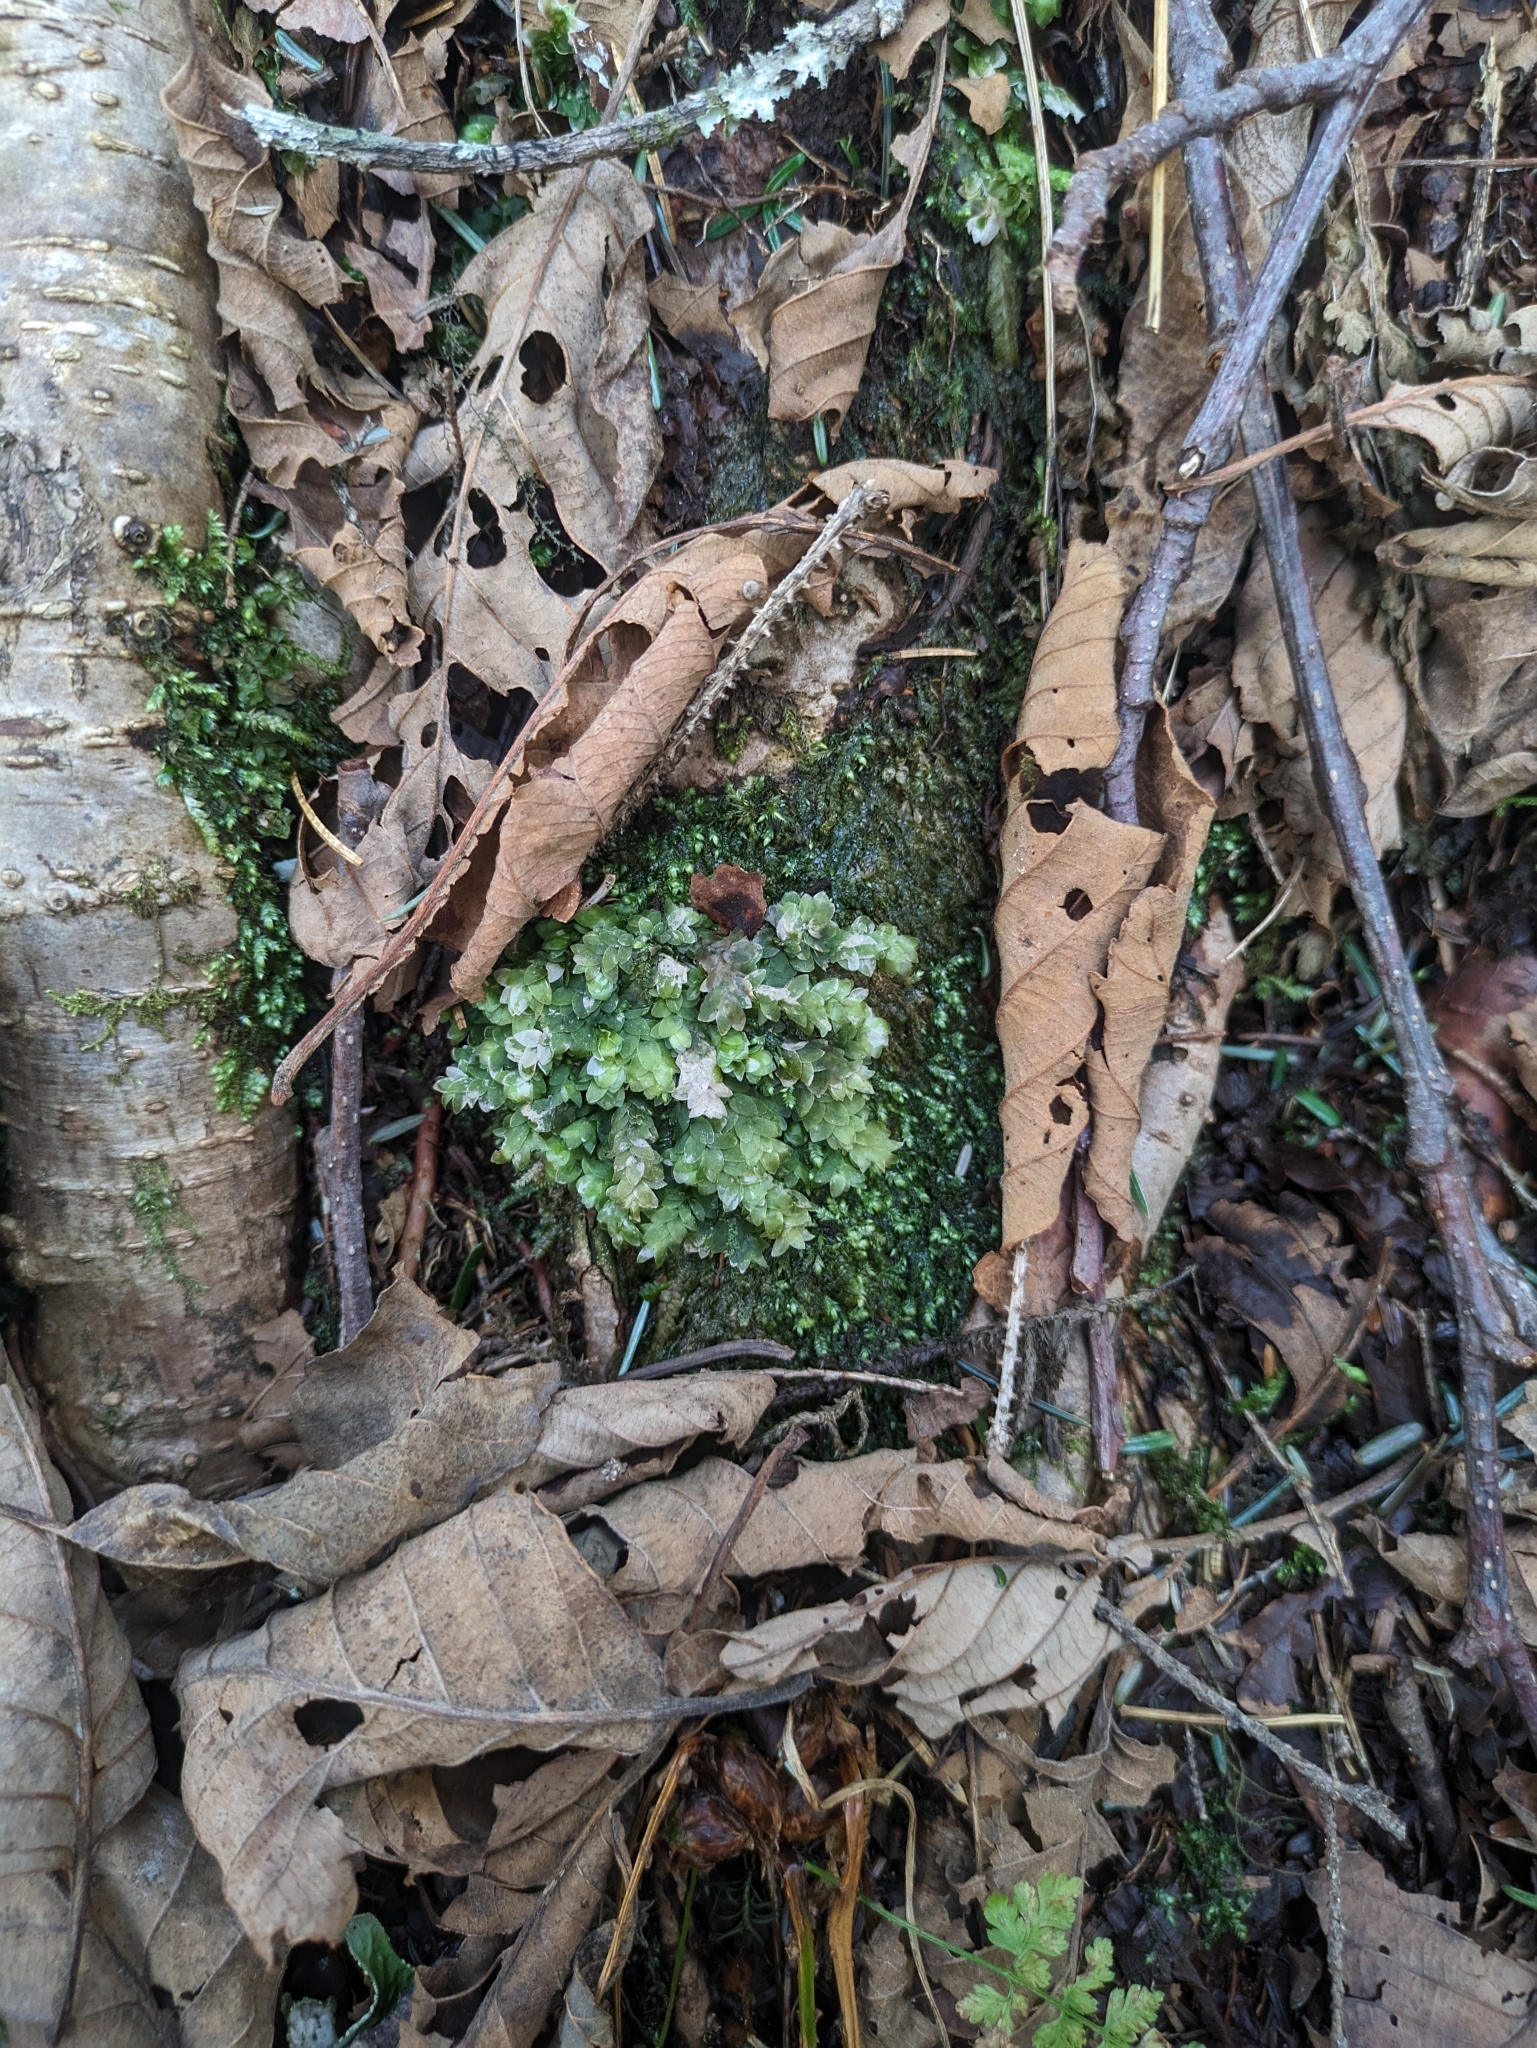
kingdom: Plantae
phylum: Bryophyta
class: Bryopsida
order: Hookeriales
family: Hookeriaceae
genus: Hookeria
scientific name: Hookeria lucens
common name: Shining hookeria
